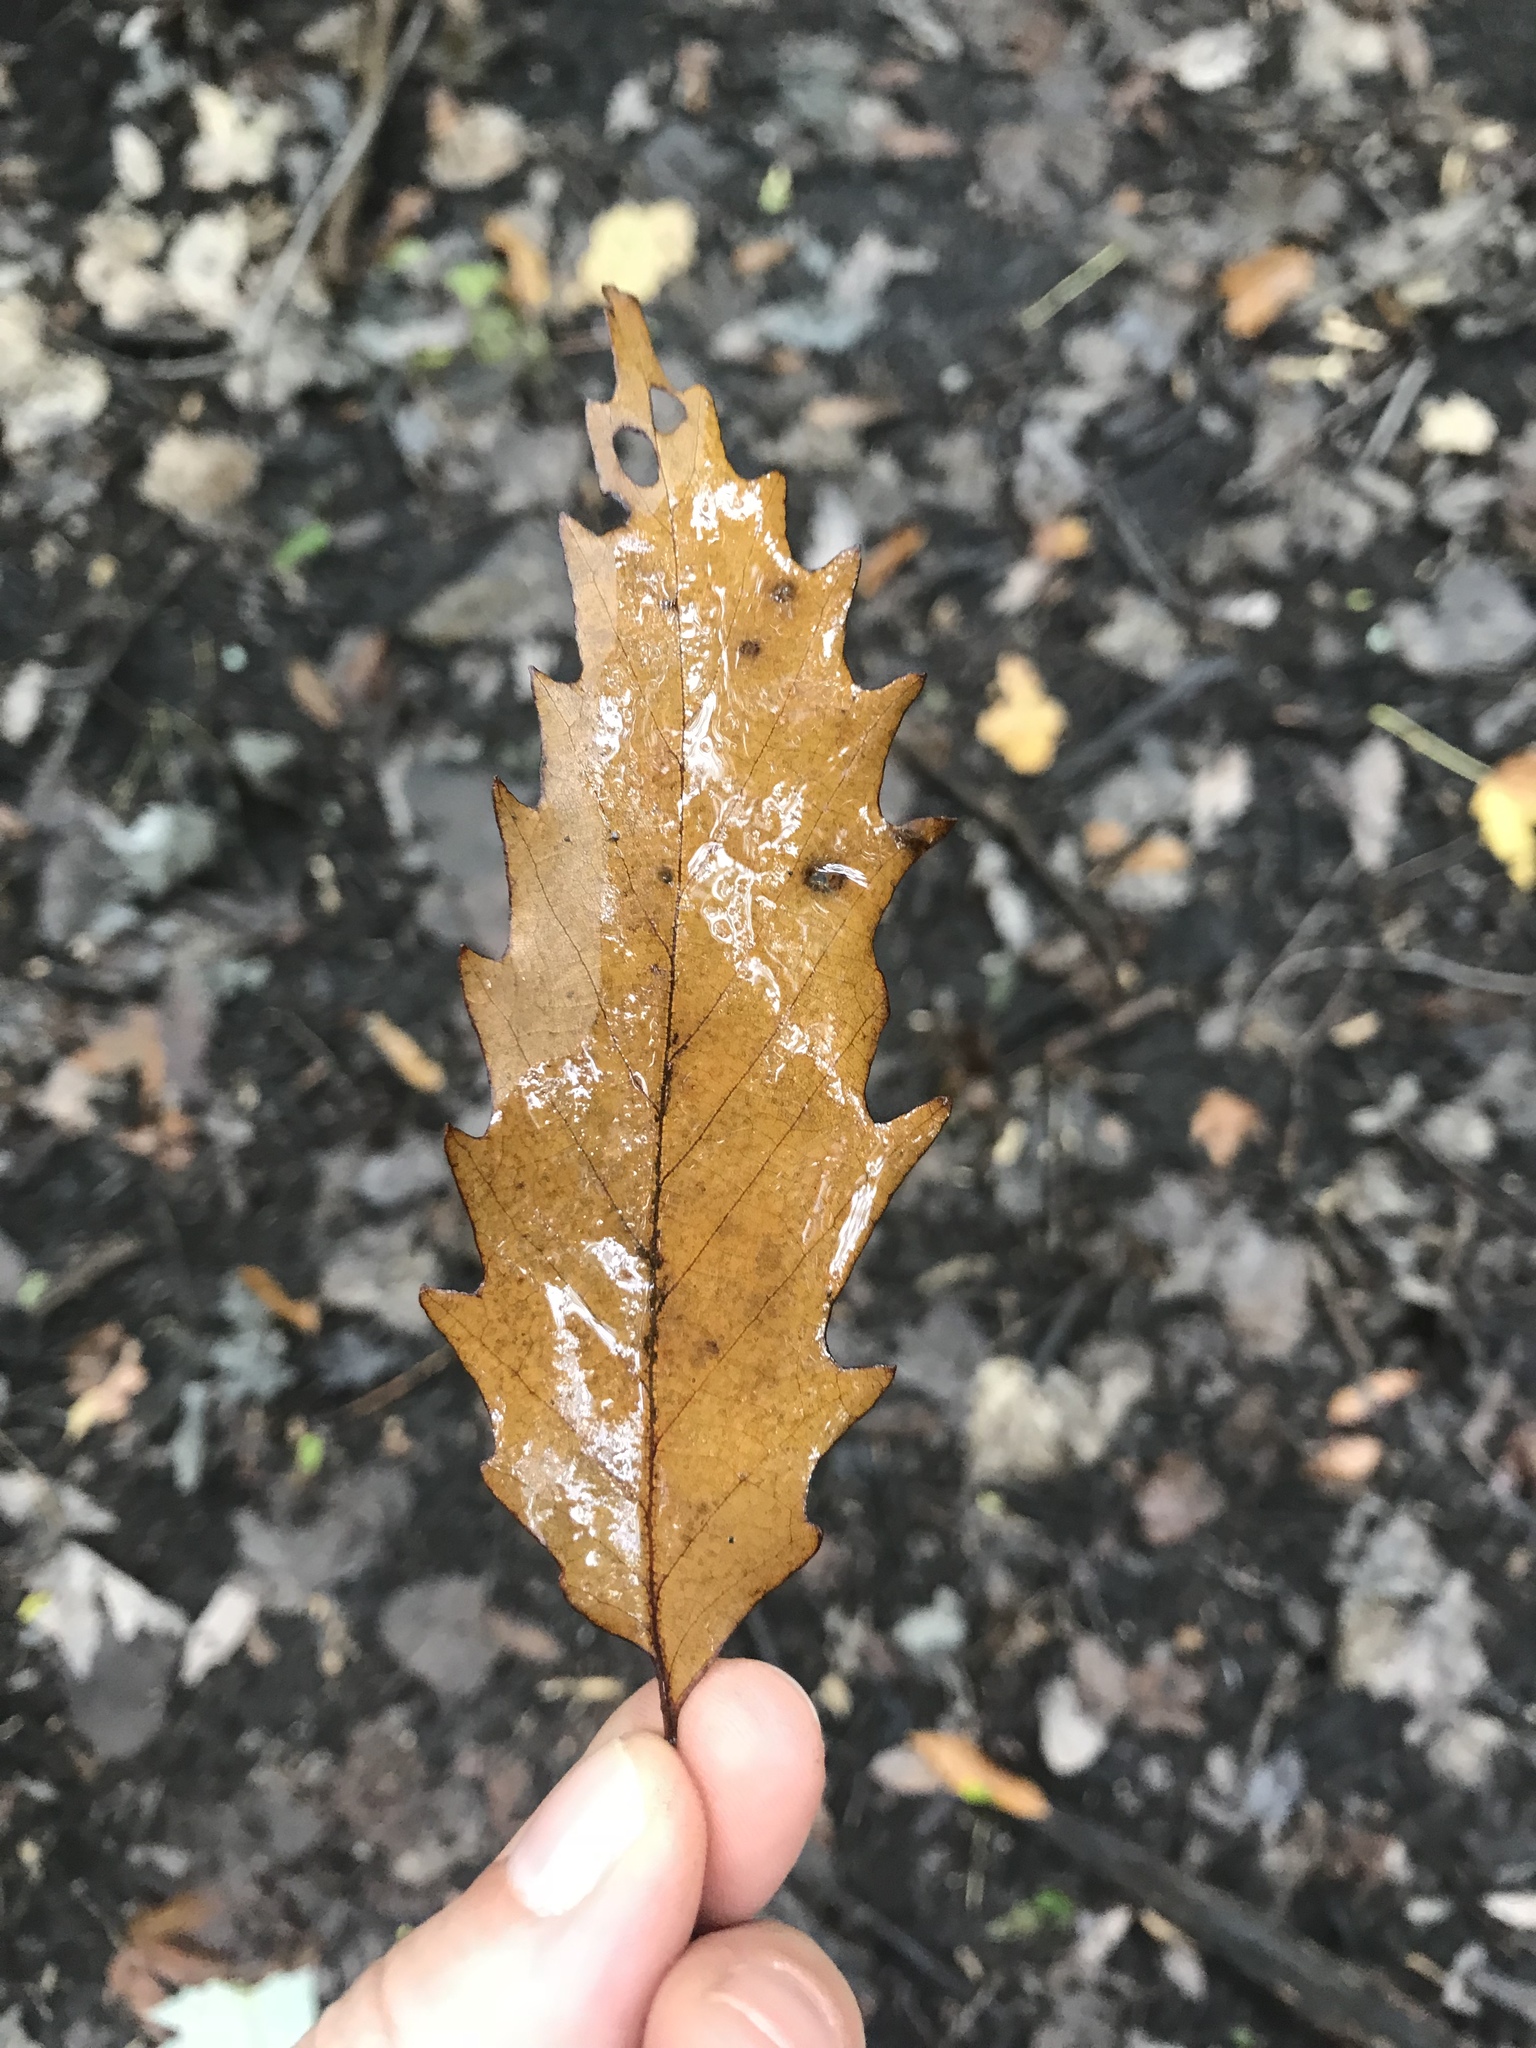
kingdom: Plantae
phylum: Tracheophyta
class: Magnoliopsida
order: Fagales
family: Fagaceae
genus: Quercus
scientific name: Quercus muehlenbergii
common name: Chinkapin oak
